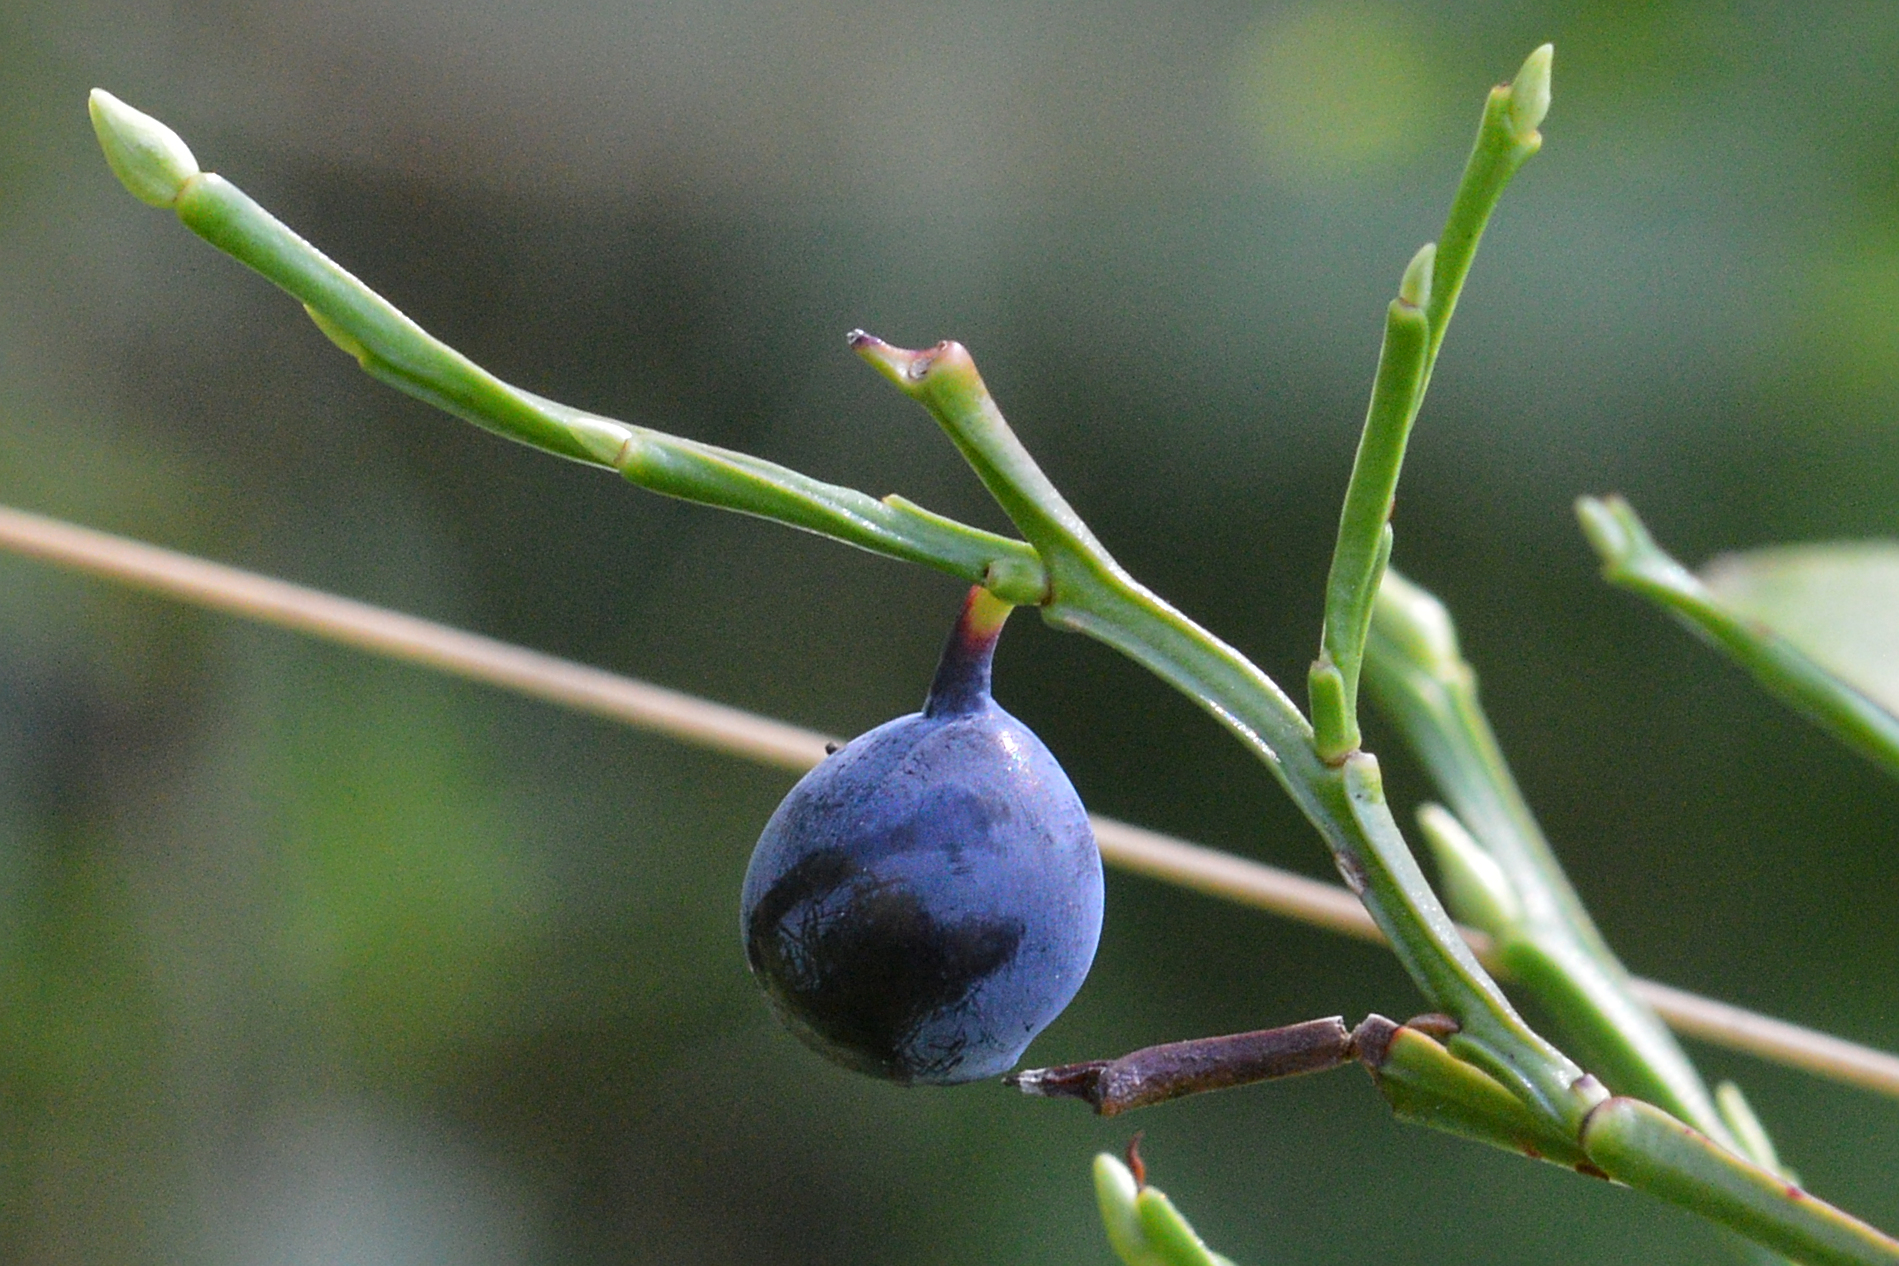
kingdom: Plantae
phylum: Tracheophyta
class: Magnoliopsida
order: Ericales
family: Ericaceae
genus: Vaccinium
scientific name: Vaccinium myrtillus
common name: Bilberry
